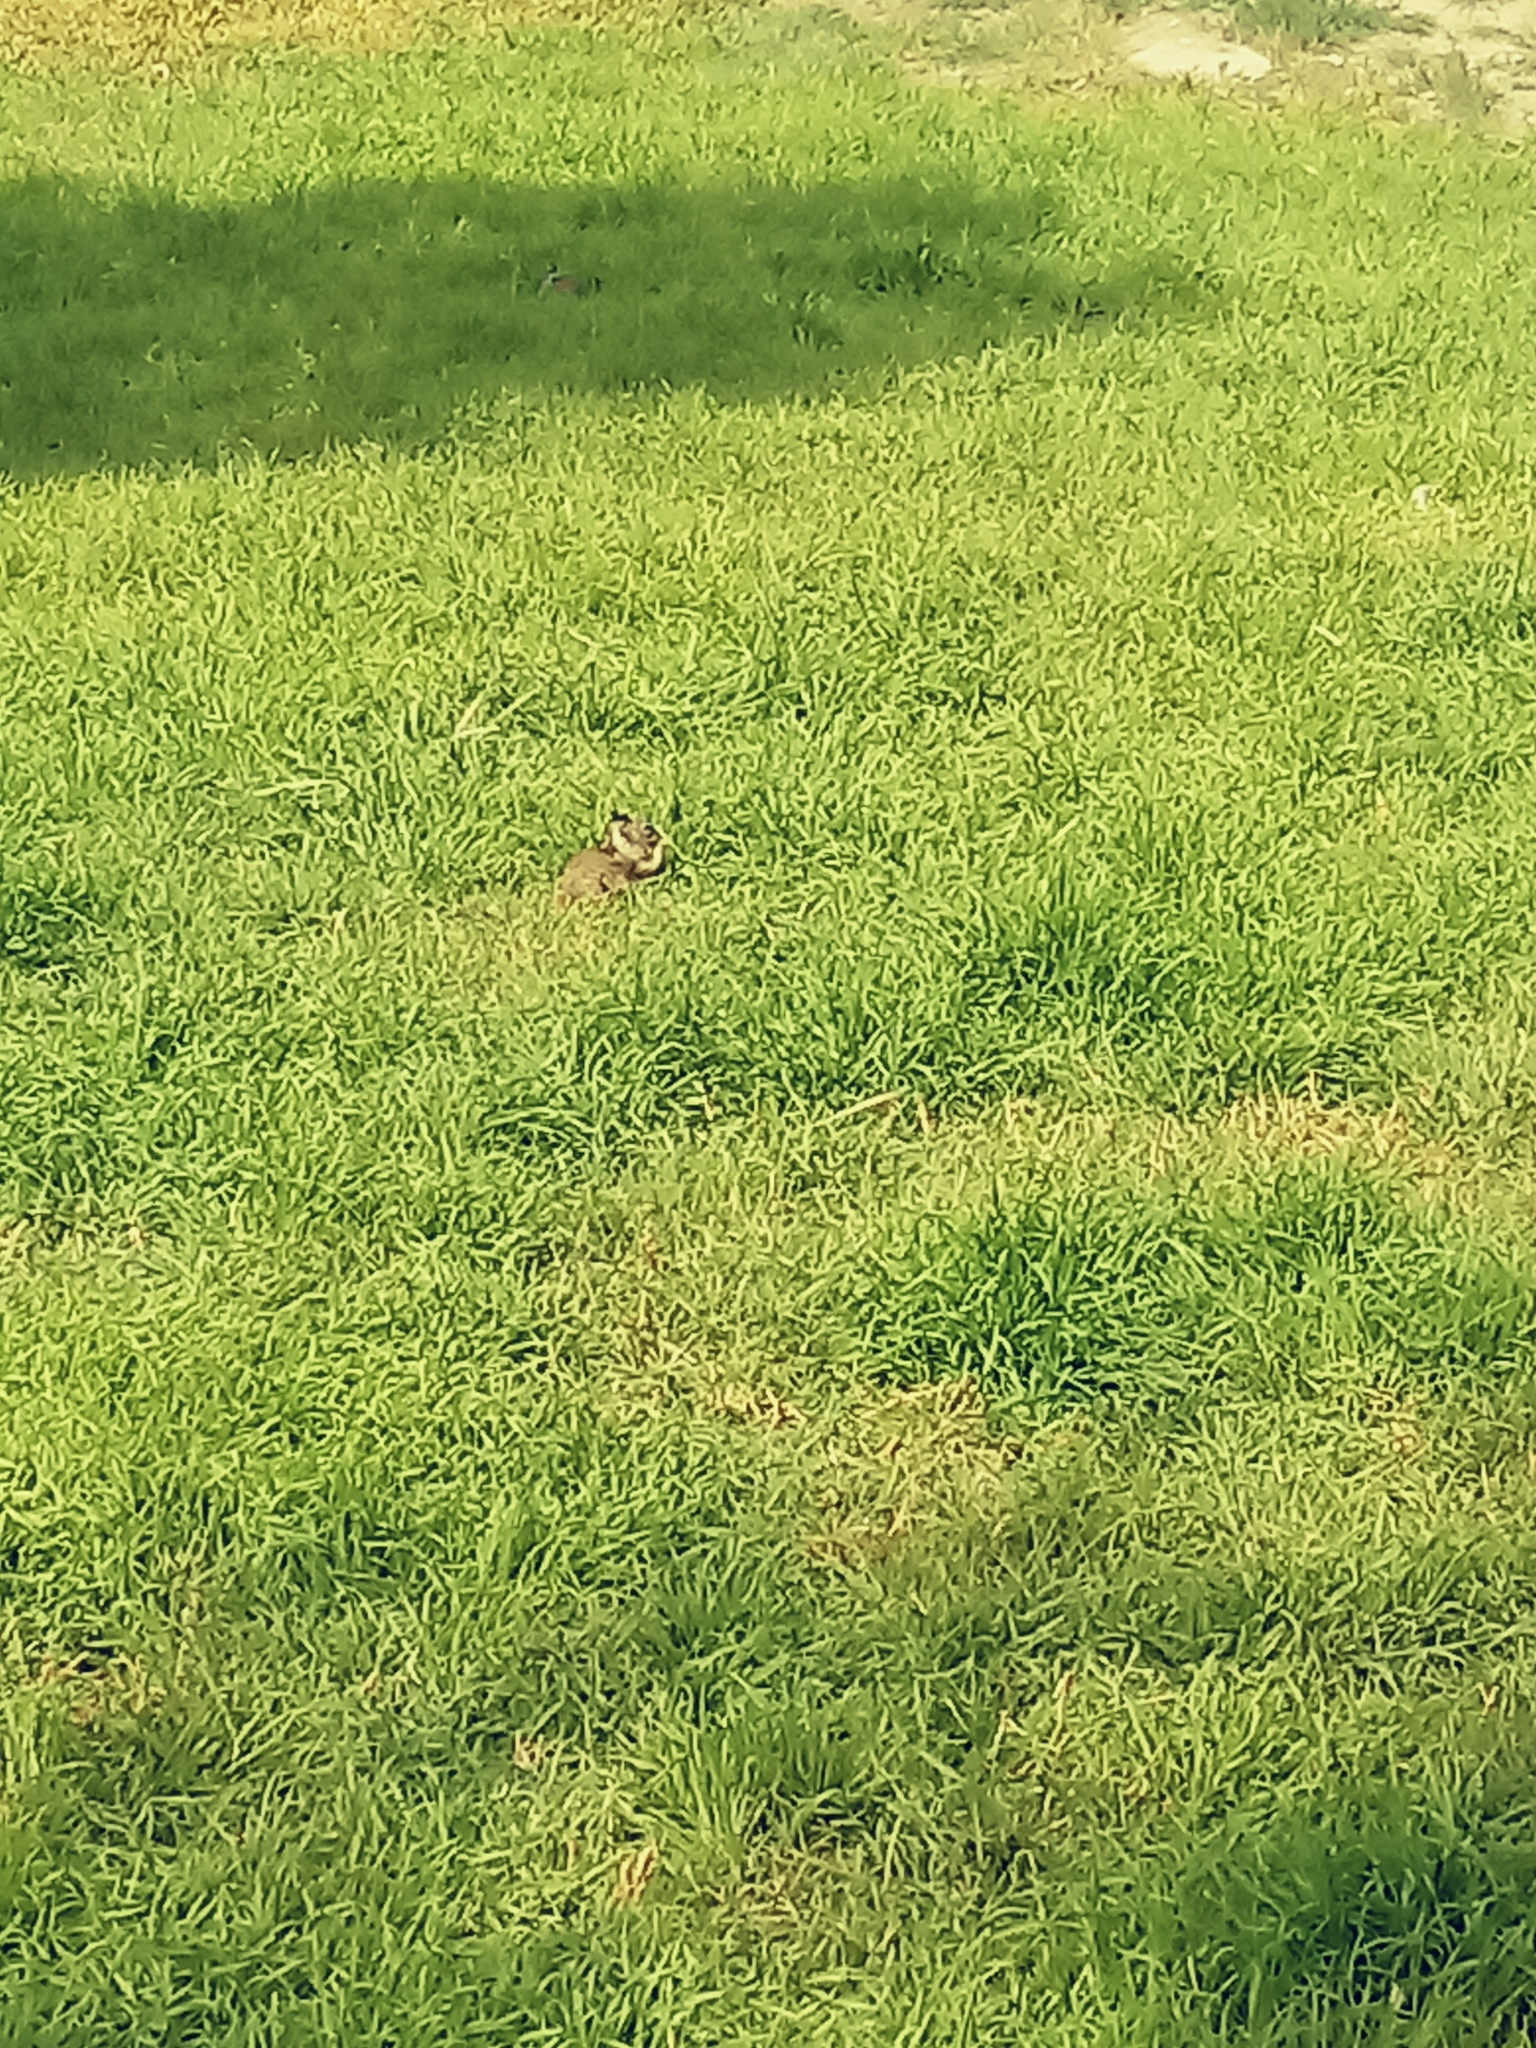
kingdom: Animalia
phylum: Chordata
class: Mammalia
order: Rodentia
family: Sciuridae
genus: Otospermophilus
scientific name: Otospermophilus beecheyi
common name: California ground squirrel
